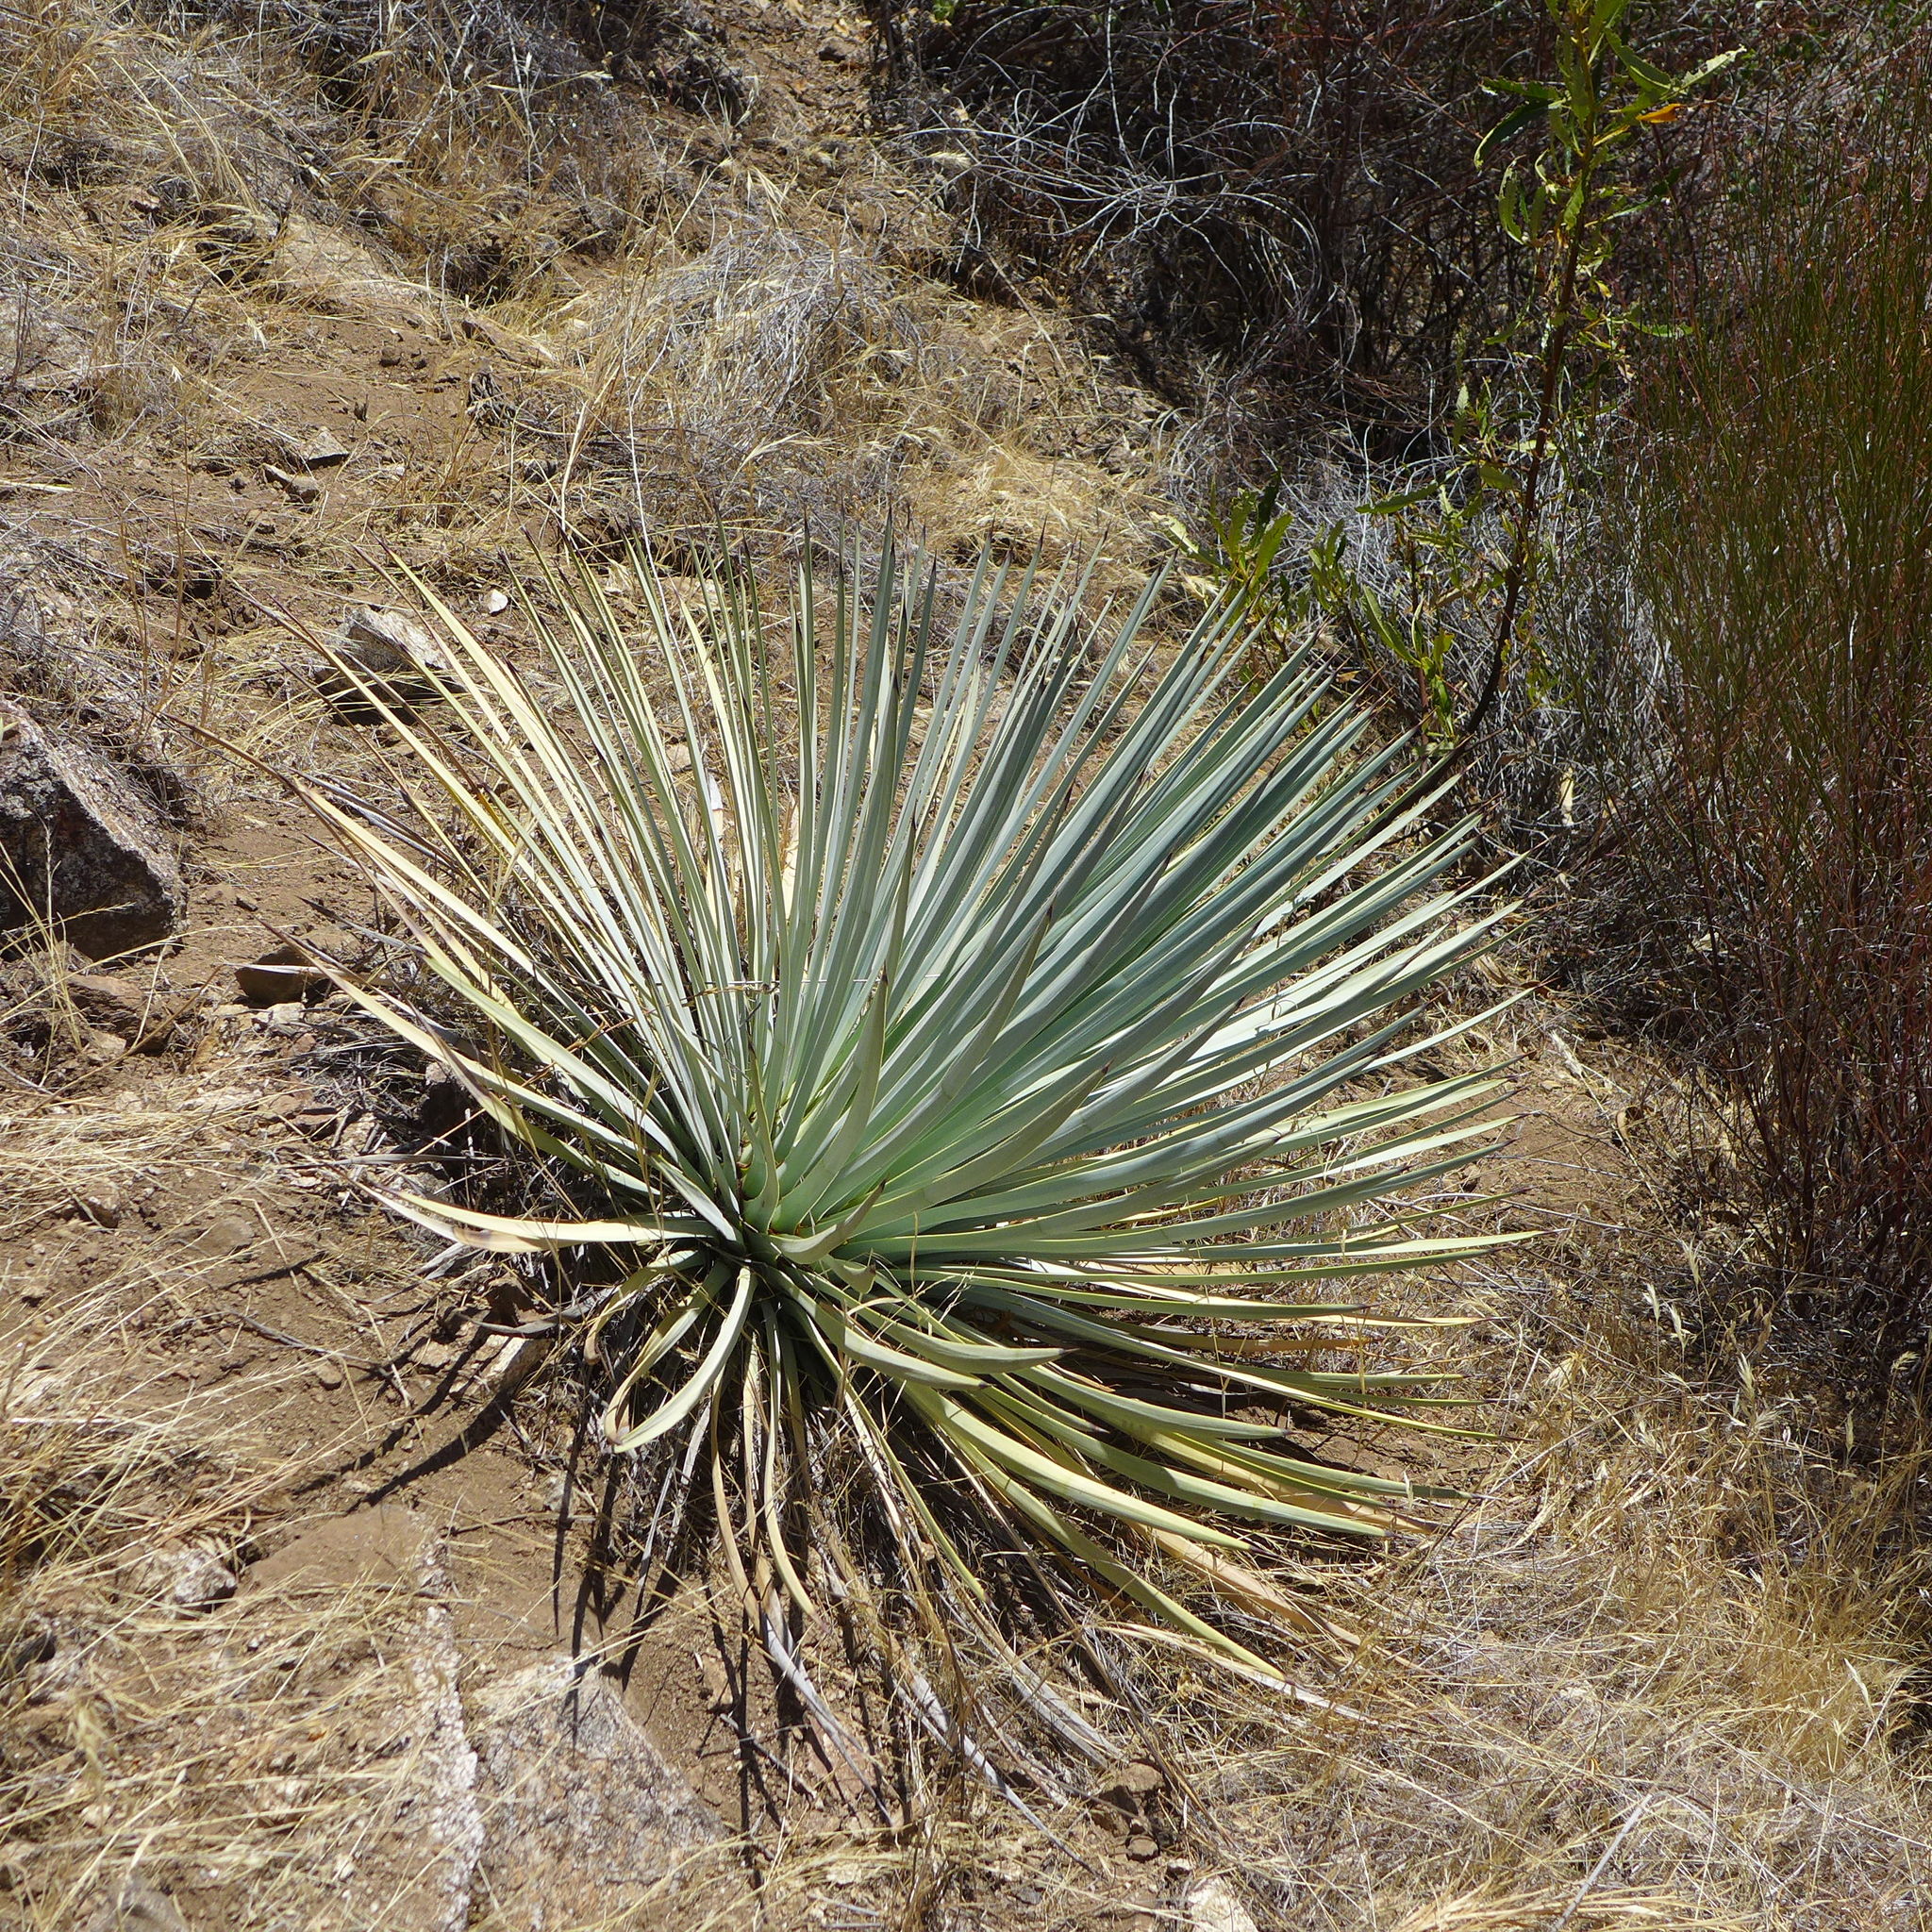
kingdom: Plantae
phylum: Tracheophyta
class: Liliopsida
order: Asparagales
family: Asparagaceae
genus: Hesperoyucca
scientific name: Hesperoyucca whipplei
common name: Our lord's-candle
